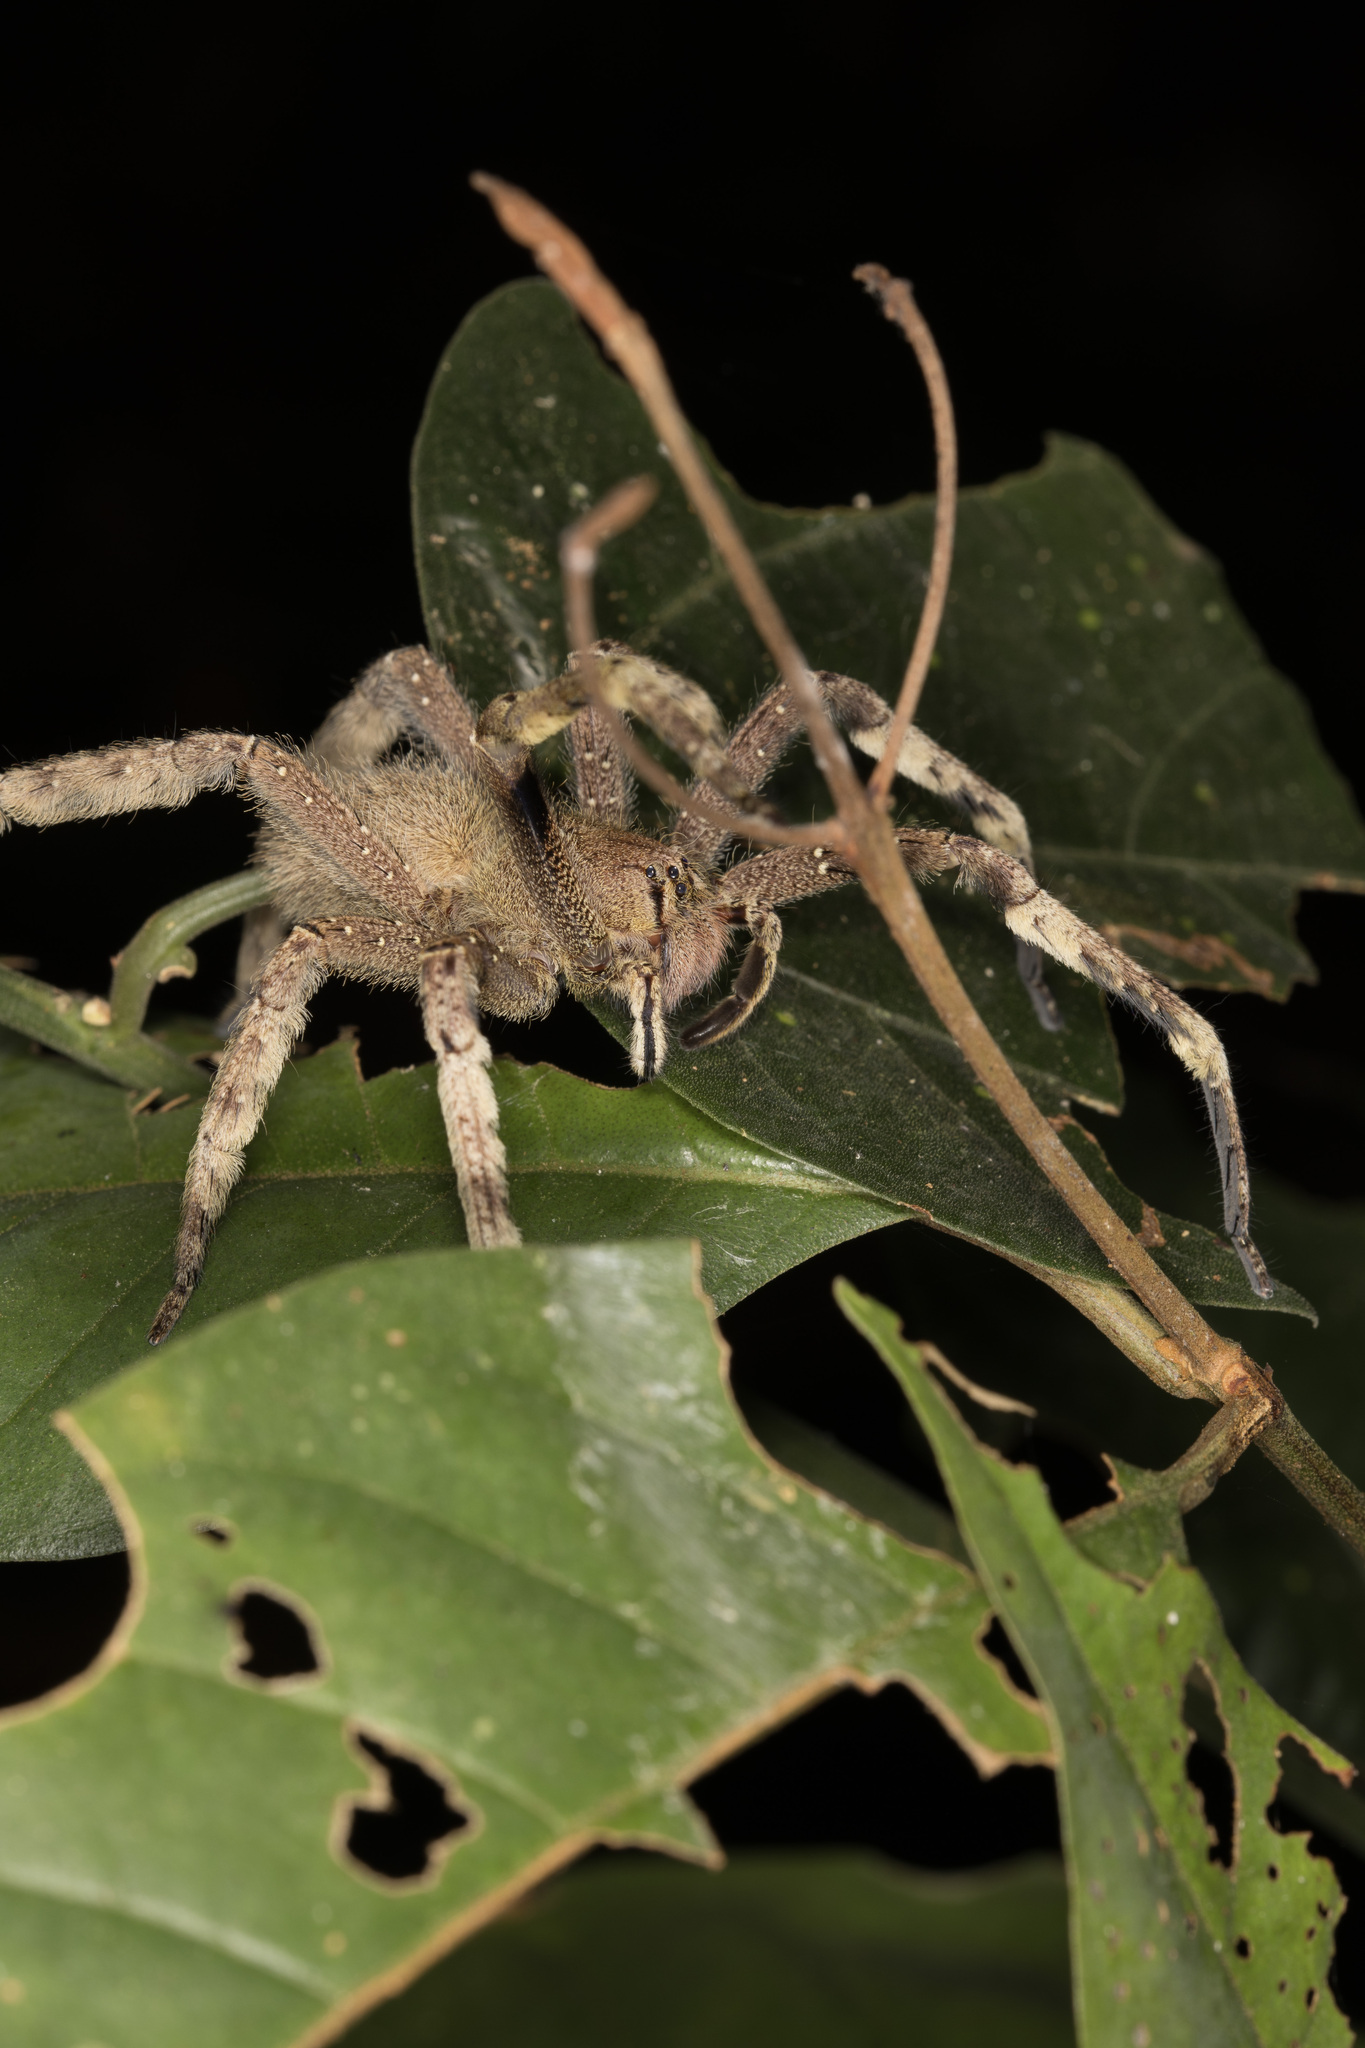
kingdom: Animalia
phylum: Arthropoda
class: Arachnida
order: Araneae
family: Ctenidae
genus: Phoneutria
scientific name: Phoneutria fera
